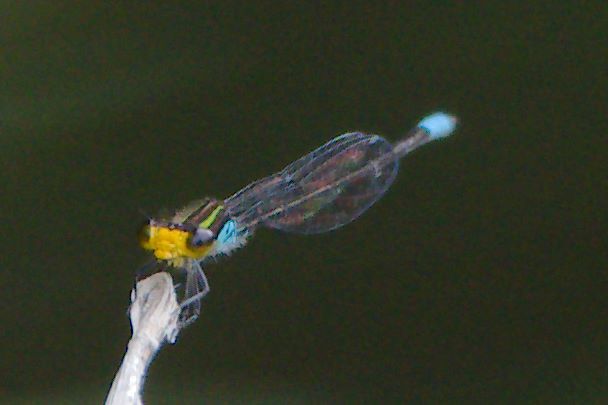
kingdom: Animalia
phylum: Arthropoda
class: Insecta
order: Odonata
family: Coenagrionidae
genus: Neoerythromma
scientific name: Neoerythromma cultellatum
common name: Caribbean yellowface
